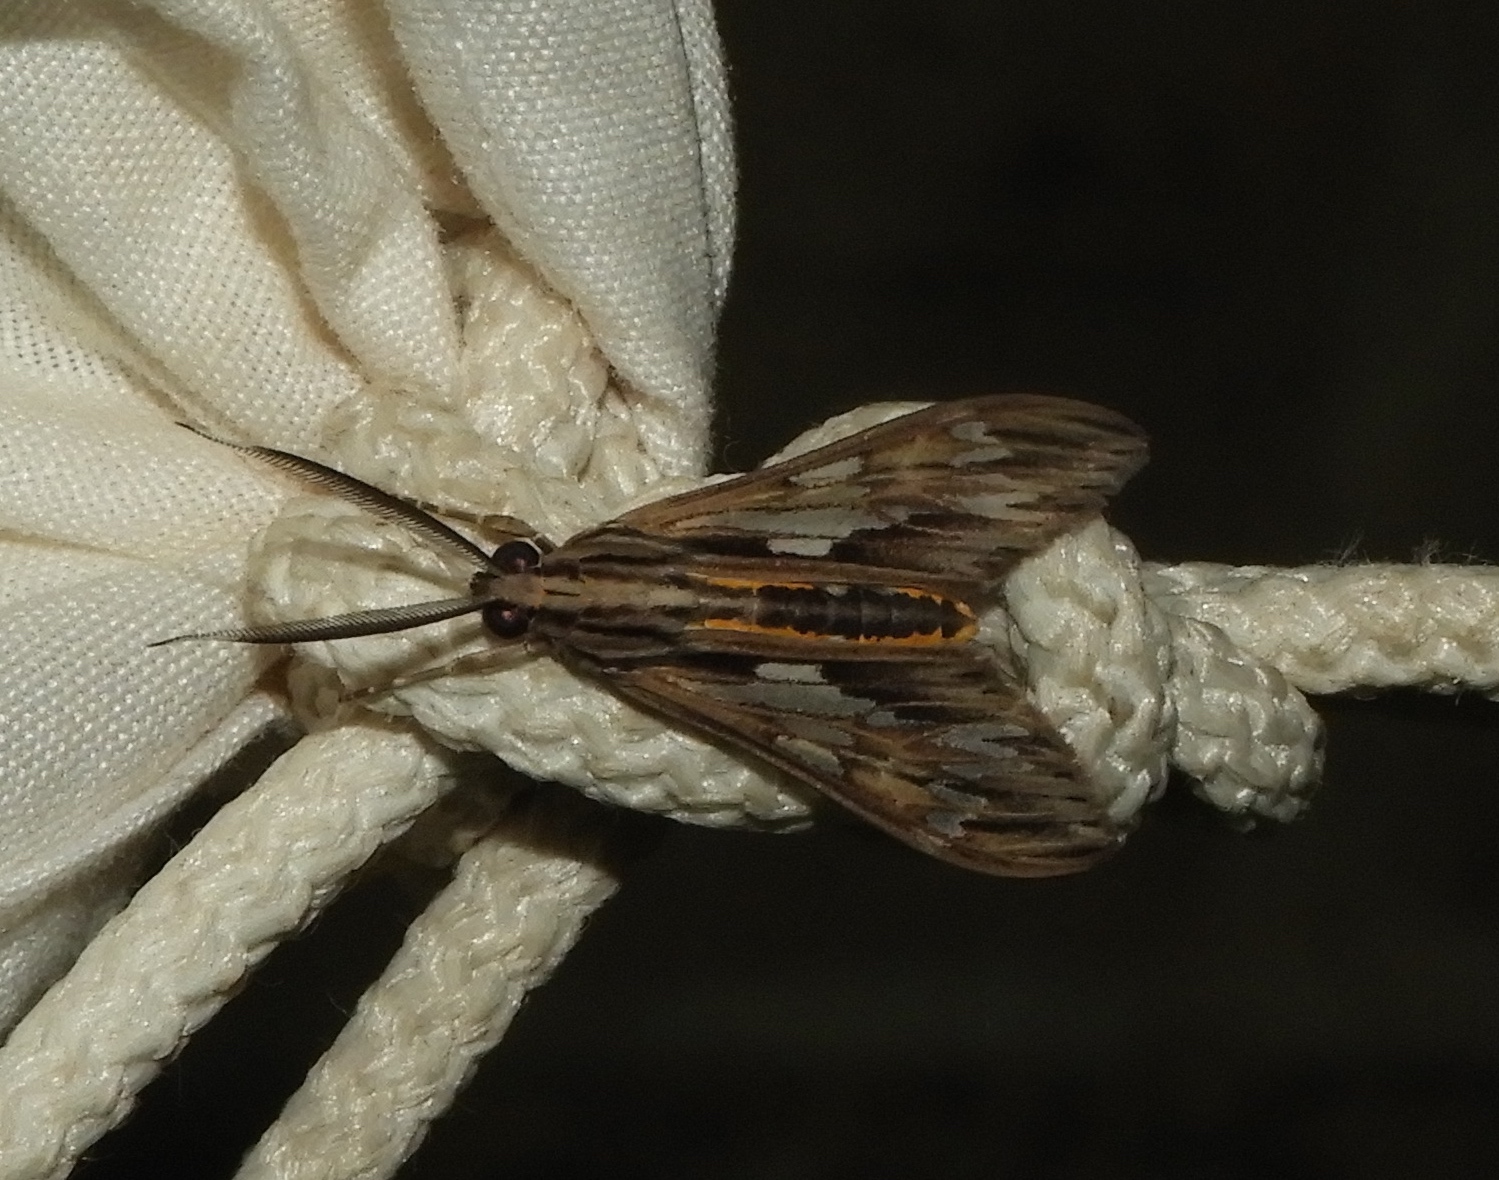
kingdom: Animalia
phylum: Arthropoda
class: Insecta
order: Lepidoptera
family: Erebidae
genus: Psilopleura
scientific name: Psilopleura vittata
